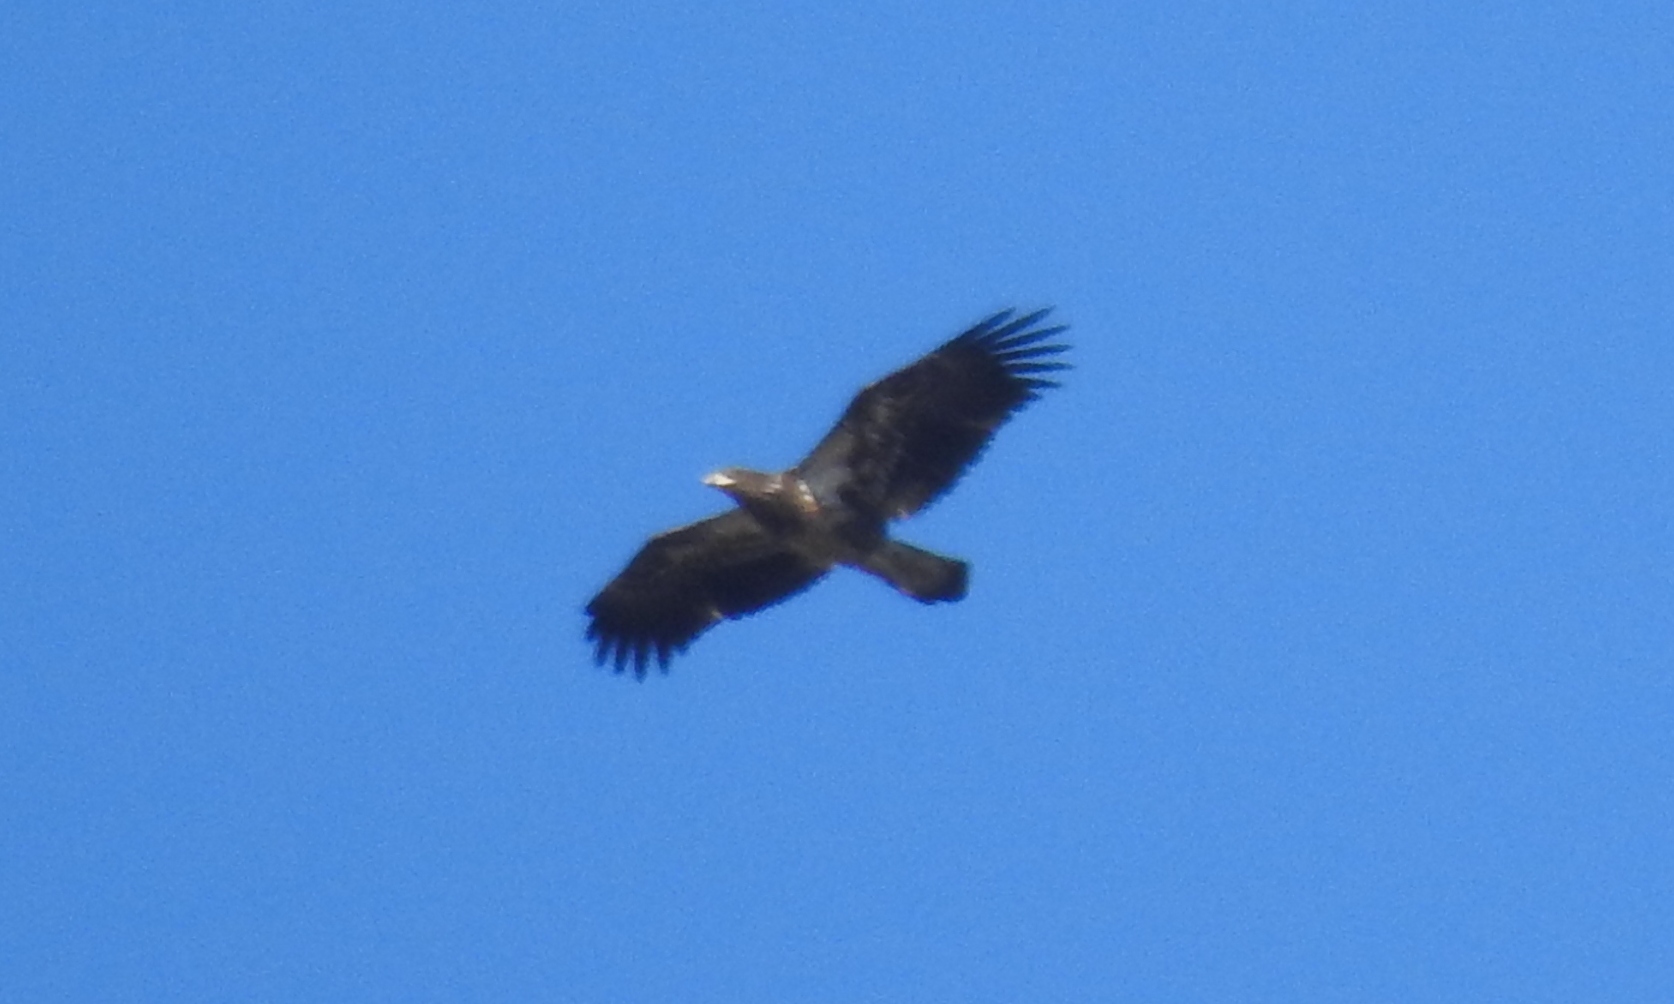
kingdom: Animalia
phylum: Chordata
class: Aves
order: Accipitriformes
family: Accipitridae
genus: Haliaeetus
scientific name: Haliaeetus leucocephalus
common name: Bald eagle
